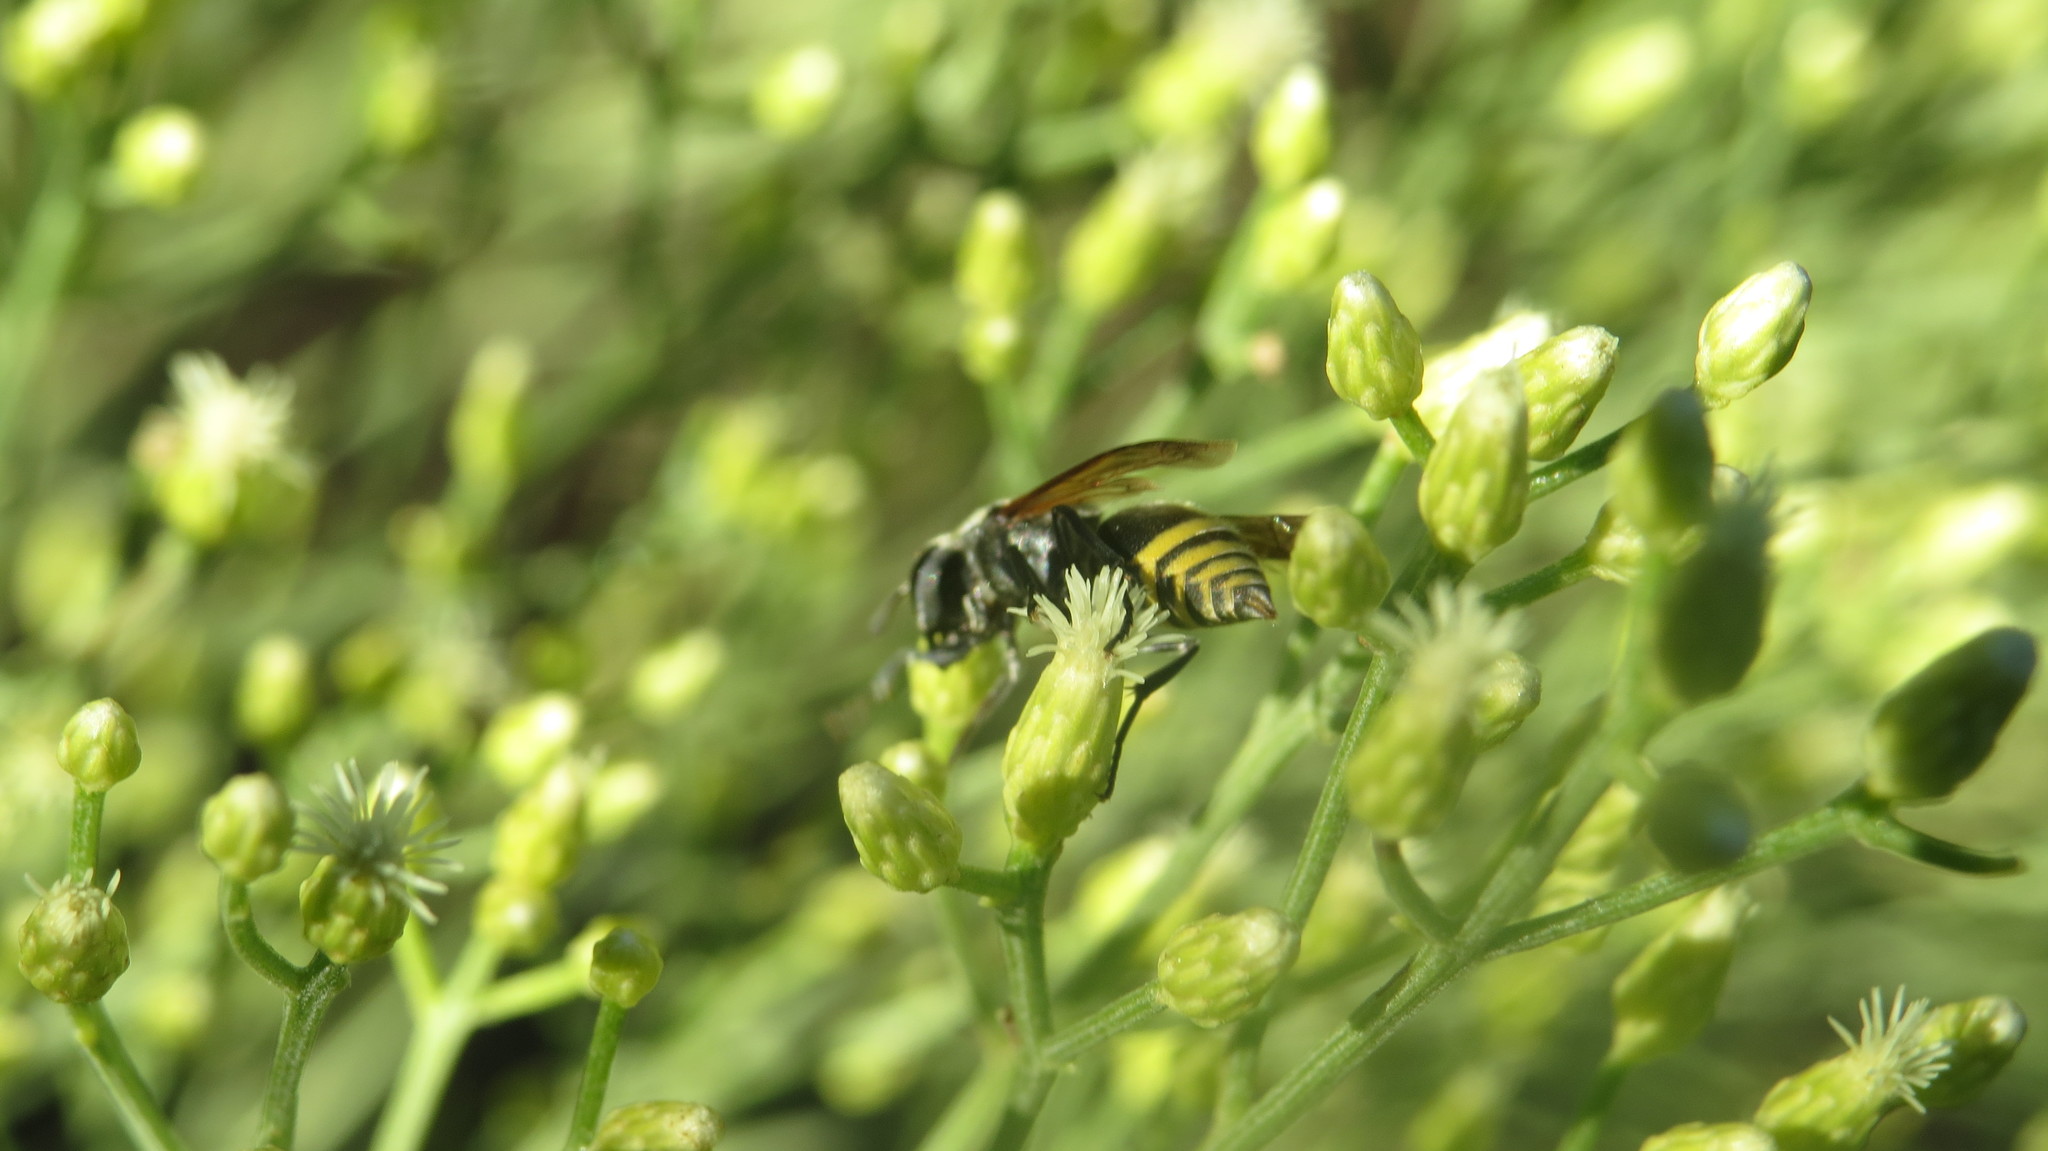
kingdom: Animalia
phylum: Arthropoda
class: Insecta
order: Hymenoptera
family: Vespidae
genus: Brachygastra
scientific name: Brachygastra lecheguana
